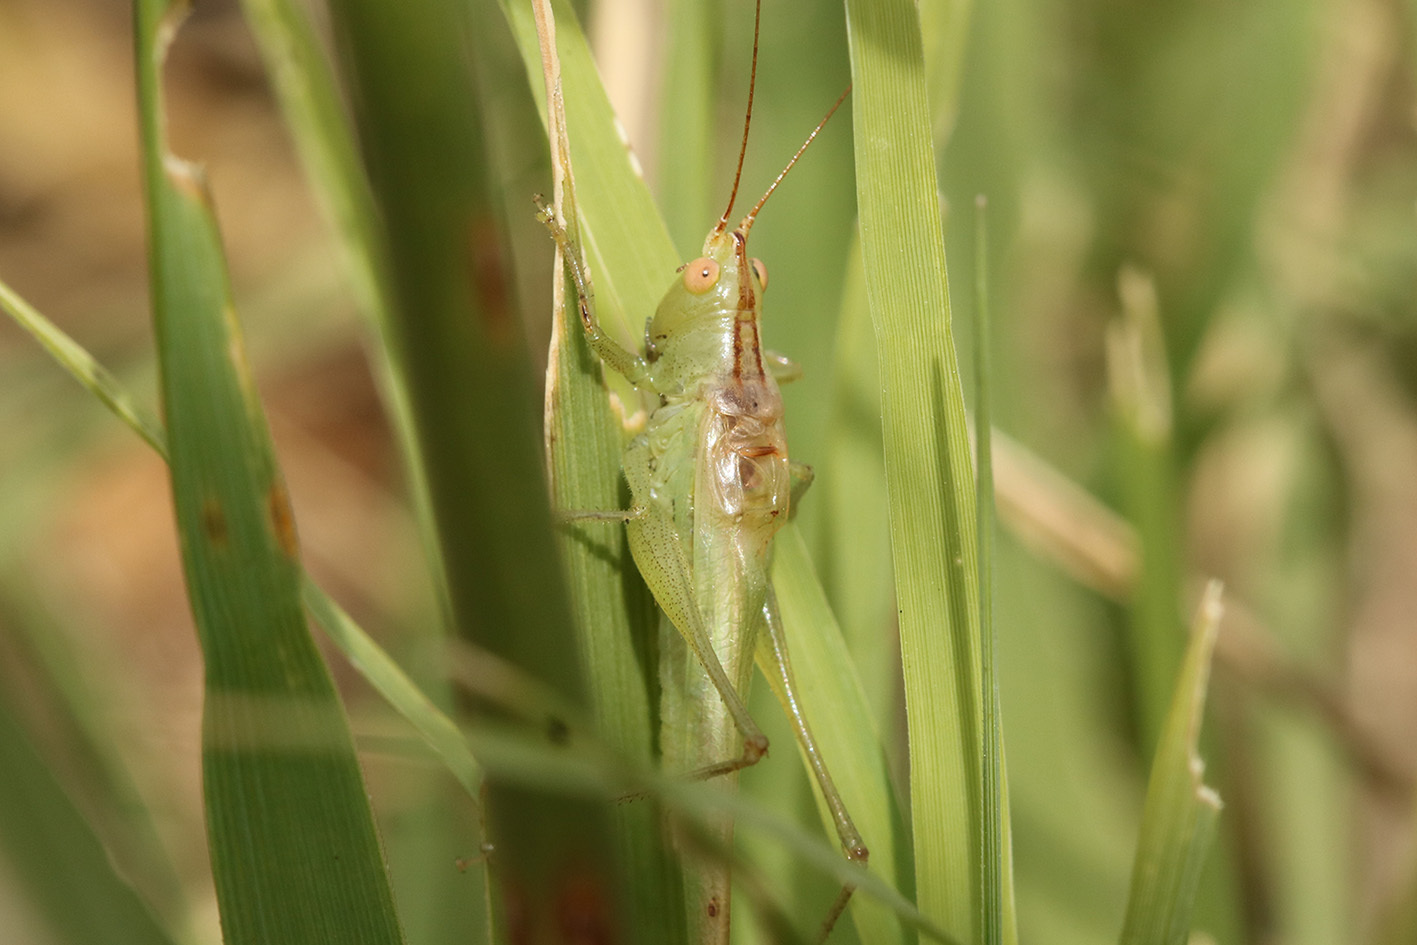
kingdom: Animalia
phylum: Arthropoda
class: Insecta
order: Orthoptera
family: Tettigoniidae
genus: Conocephalus
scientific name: Conocephalus longipes
